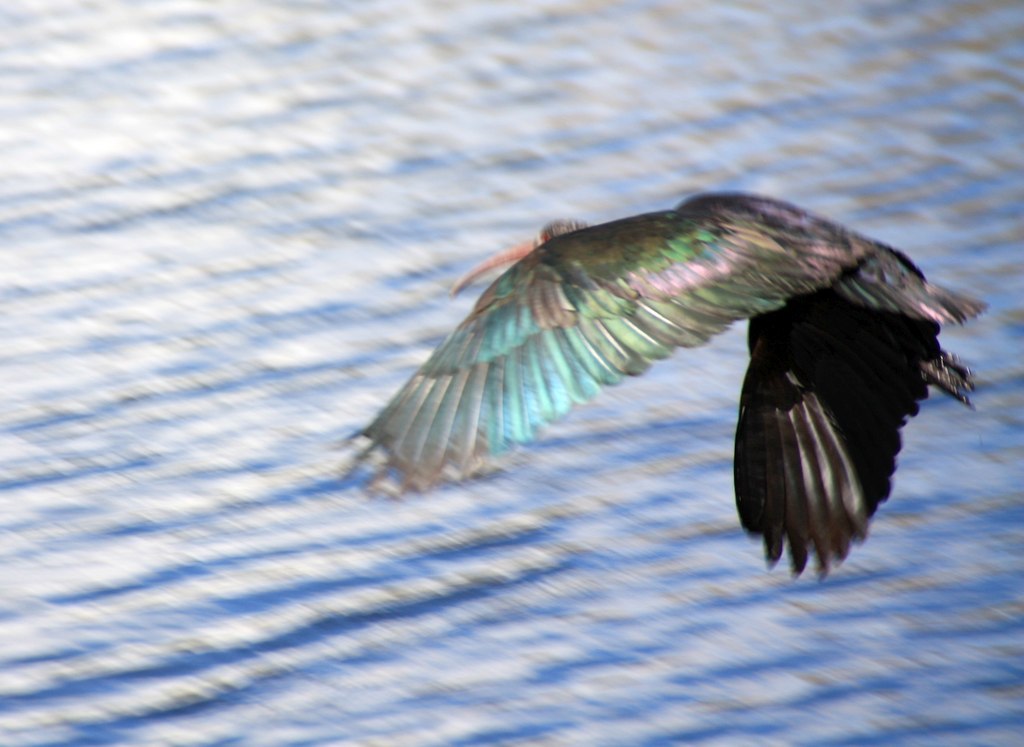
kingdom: Animalia
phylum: Chordata
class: Aves
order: Pelecaniformes
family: Threskiornithidae
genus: Plegadis
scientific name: Plegadis ridgwayi
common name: Puna ibis
